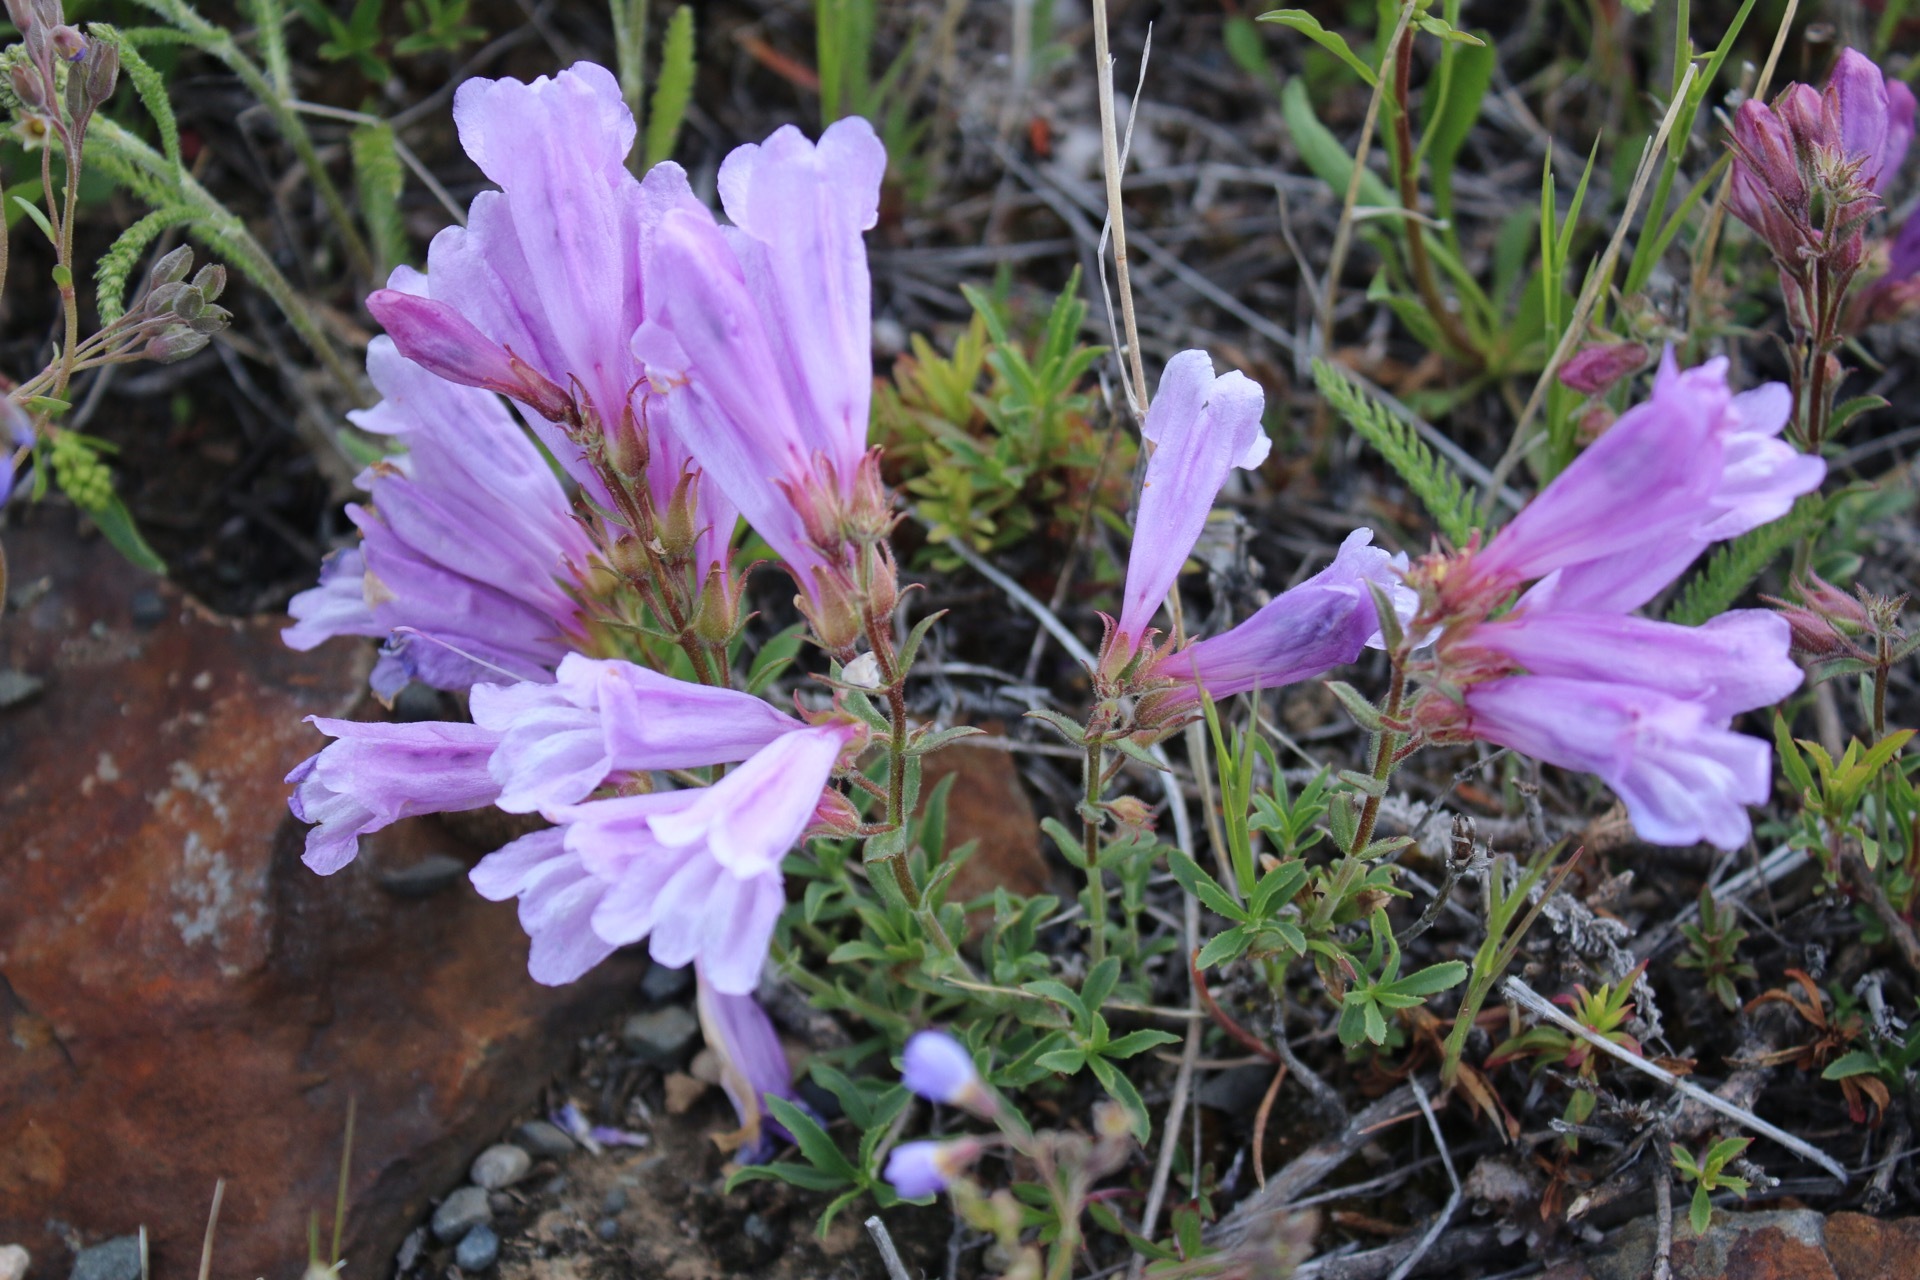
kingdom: Plantae
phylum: Tracheophyta
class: Magnoliopsida
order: Lamiales
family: Plantaginaceae
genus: Penstemon
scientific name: Penstemon fruticosus
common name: Bush penstemon
